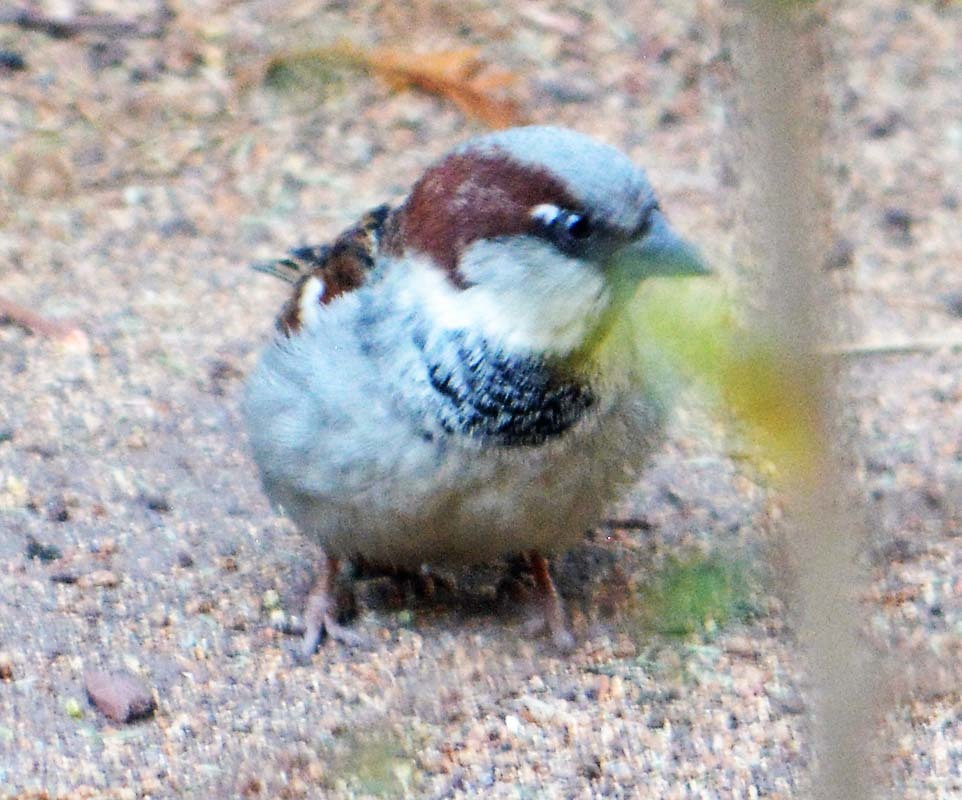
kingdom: Animalia
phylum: Chordata
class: Aves
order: Passeriformes
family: Passeridae
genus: Passer
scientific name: Passer domesticus
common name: House sparrow
